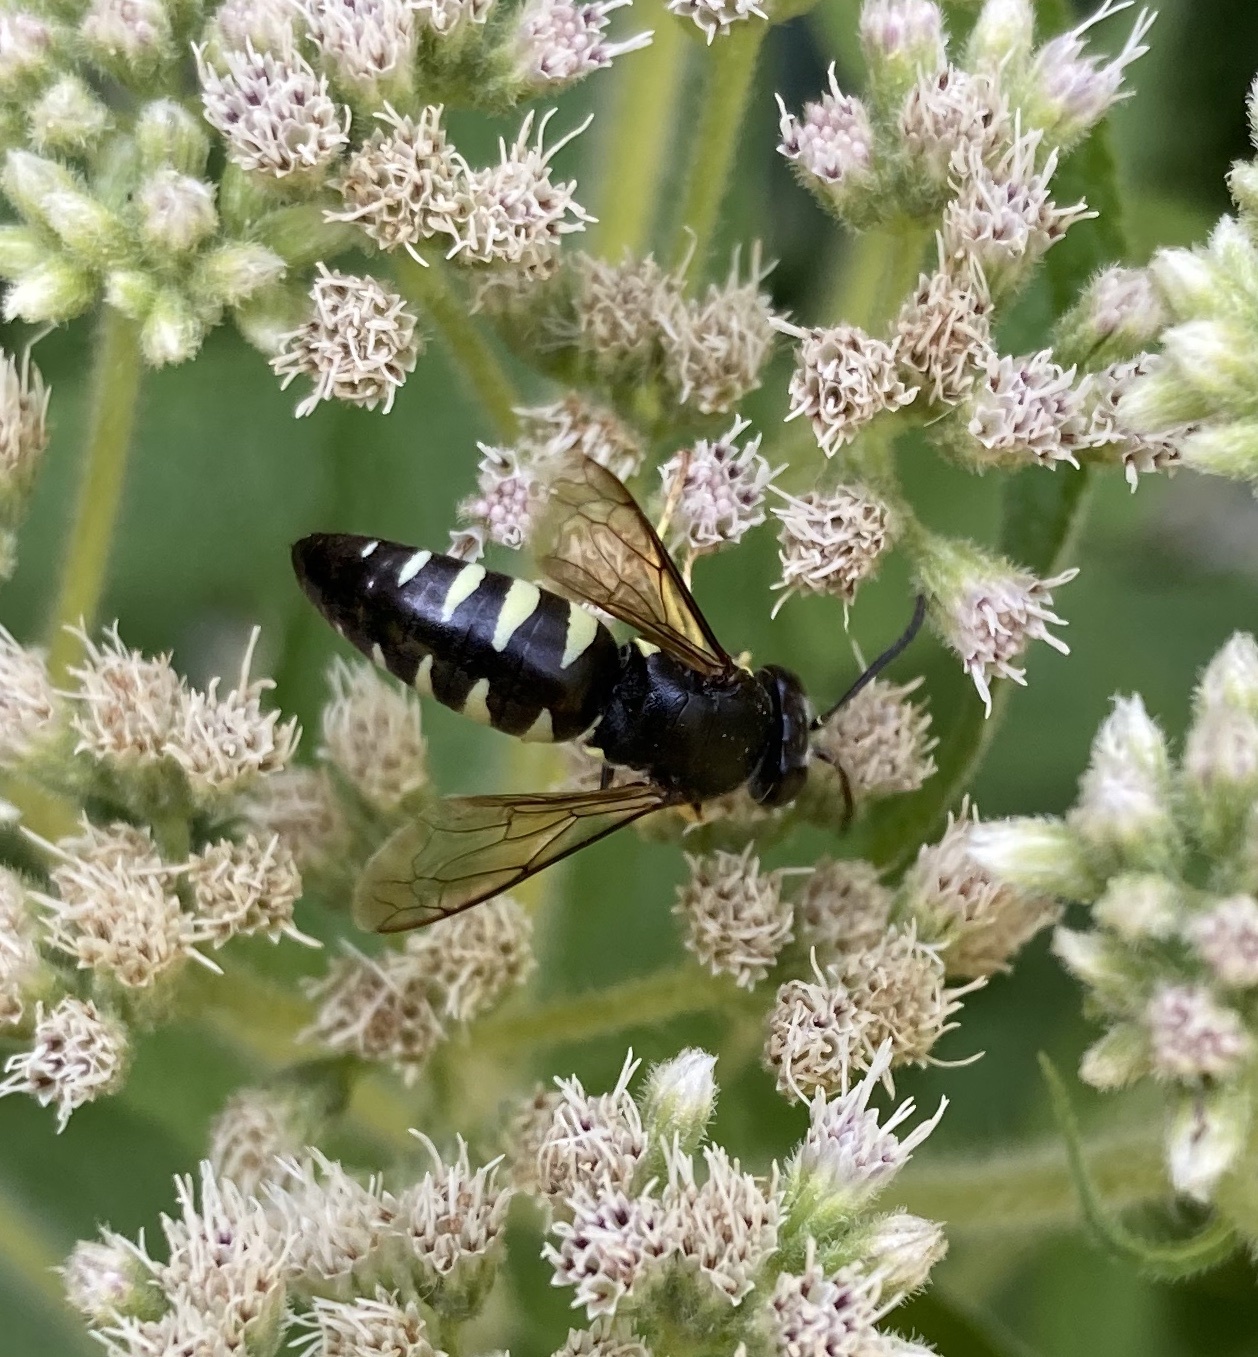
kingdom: Animalia
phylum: Arthropoda
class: Insecta
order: Hymenoptera
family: Crabronidae
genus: Bicyrtes
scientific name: Bicyrtes quadrifasciatus
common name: Four-banded stink bug hunter wasp
